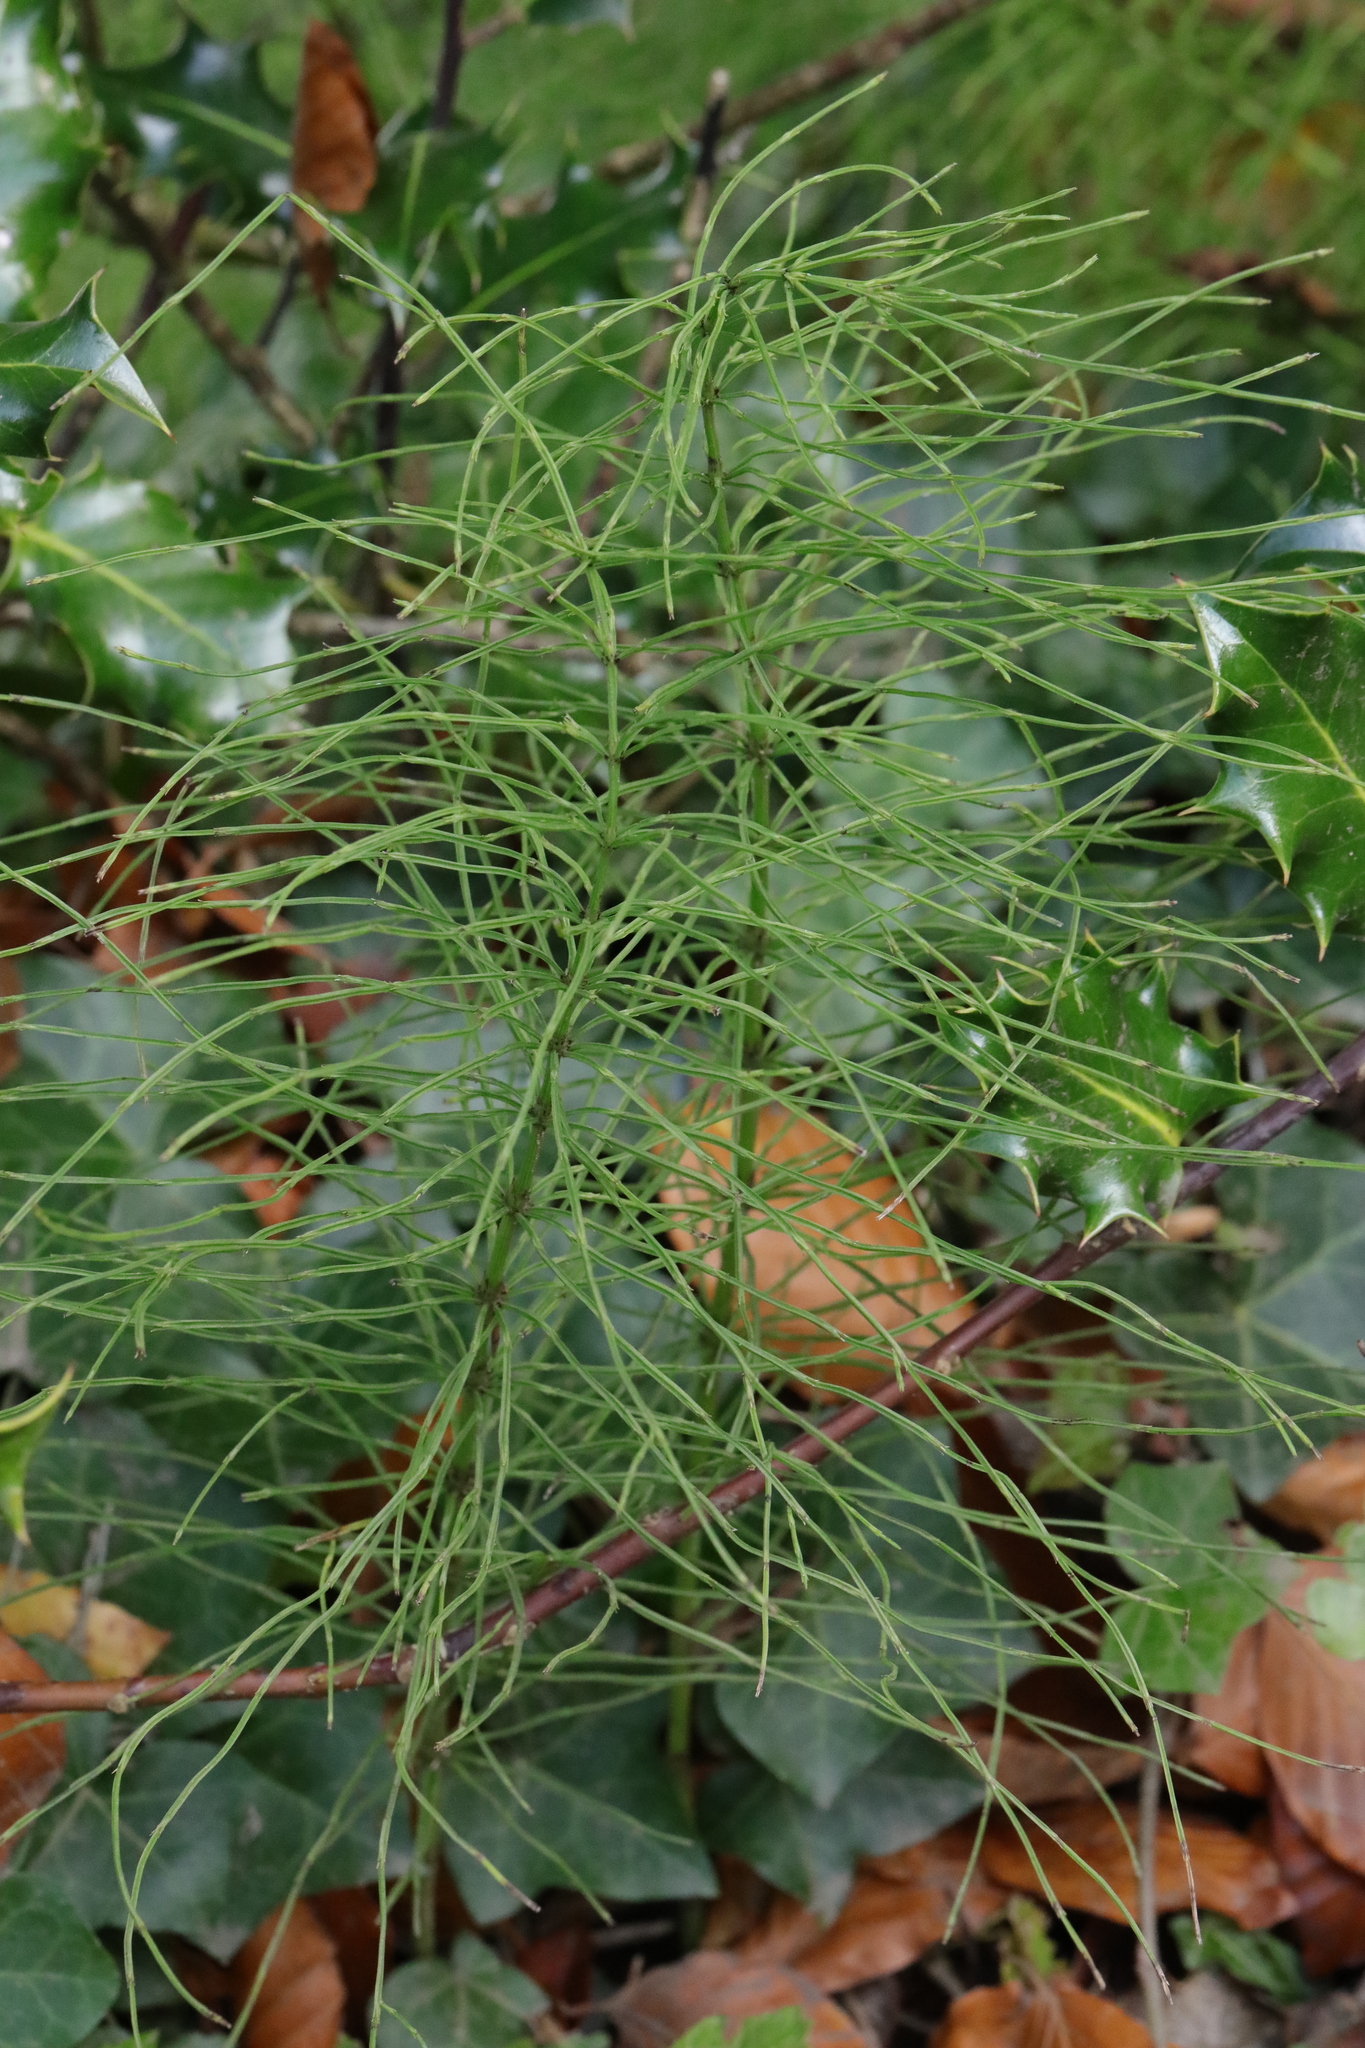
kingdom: Plantae
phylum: Tracheophyta
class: Polypodiopsida
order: Equisetales
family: Equisetaceae
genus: Equisetum
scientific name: Equisetum arvense
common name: Field horsetail
